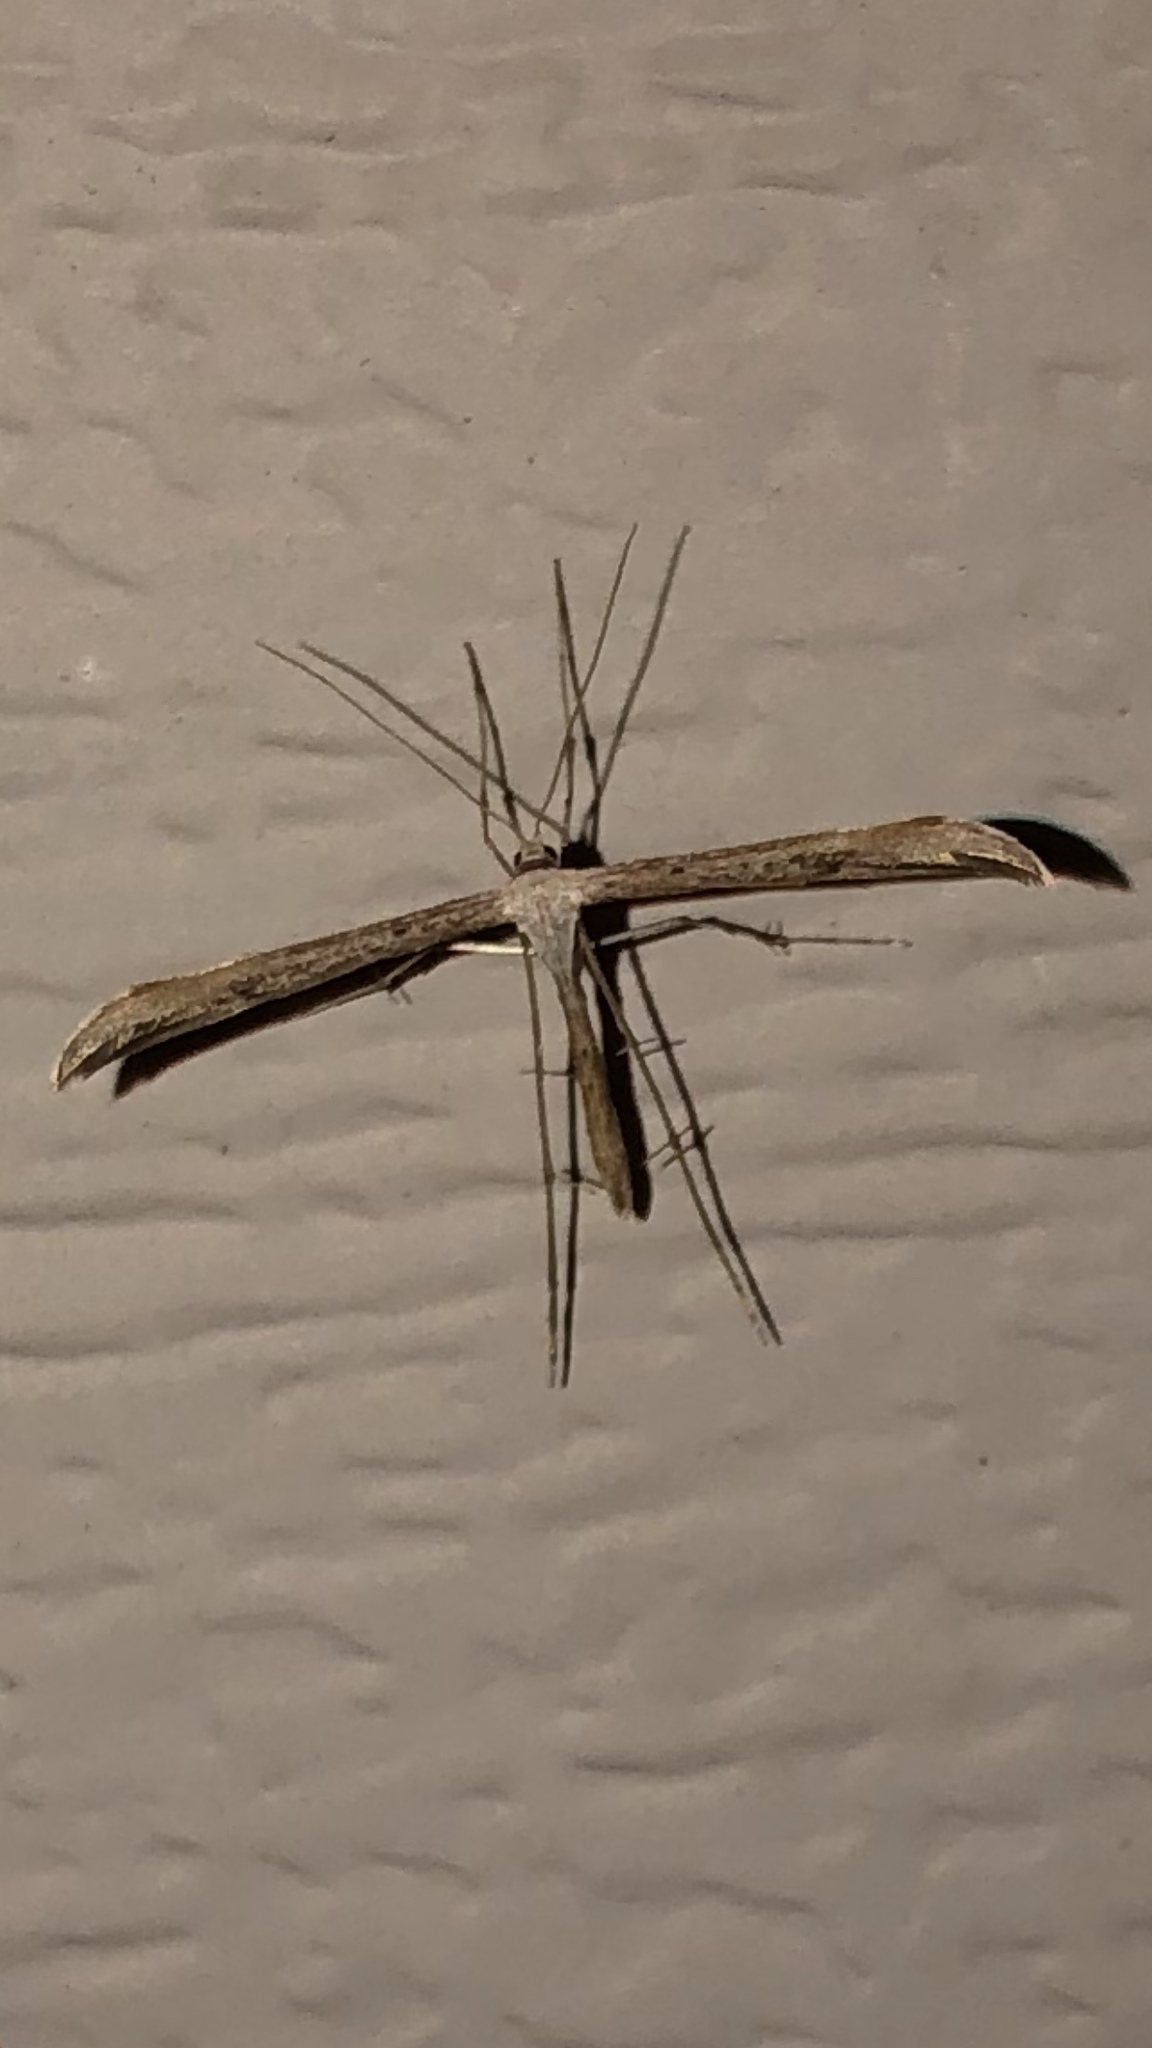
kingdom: Animalia
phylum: Arthropoda
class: Insecta
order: Lepidoptera
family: Pterophoridae
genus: Emmelina
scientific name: Emmelina monodactyla
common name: Common plume
